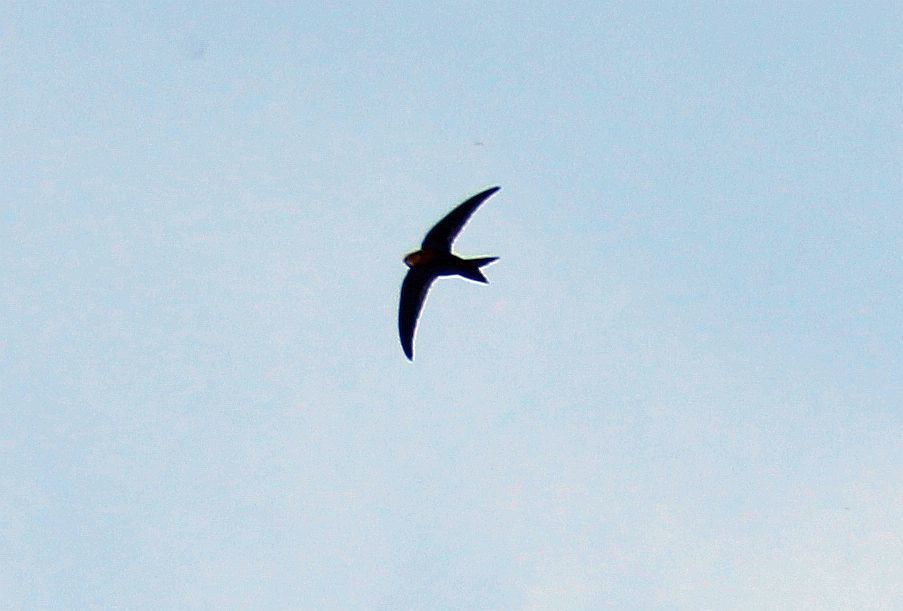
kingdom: Animalia
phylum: Chordata
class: Aves
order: Apodiformes
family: Apodidae
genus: Apus
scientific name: Apus apus
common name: Common swift
